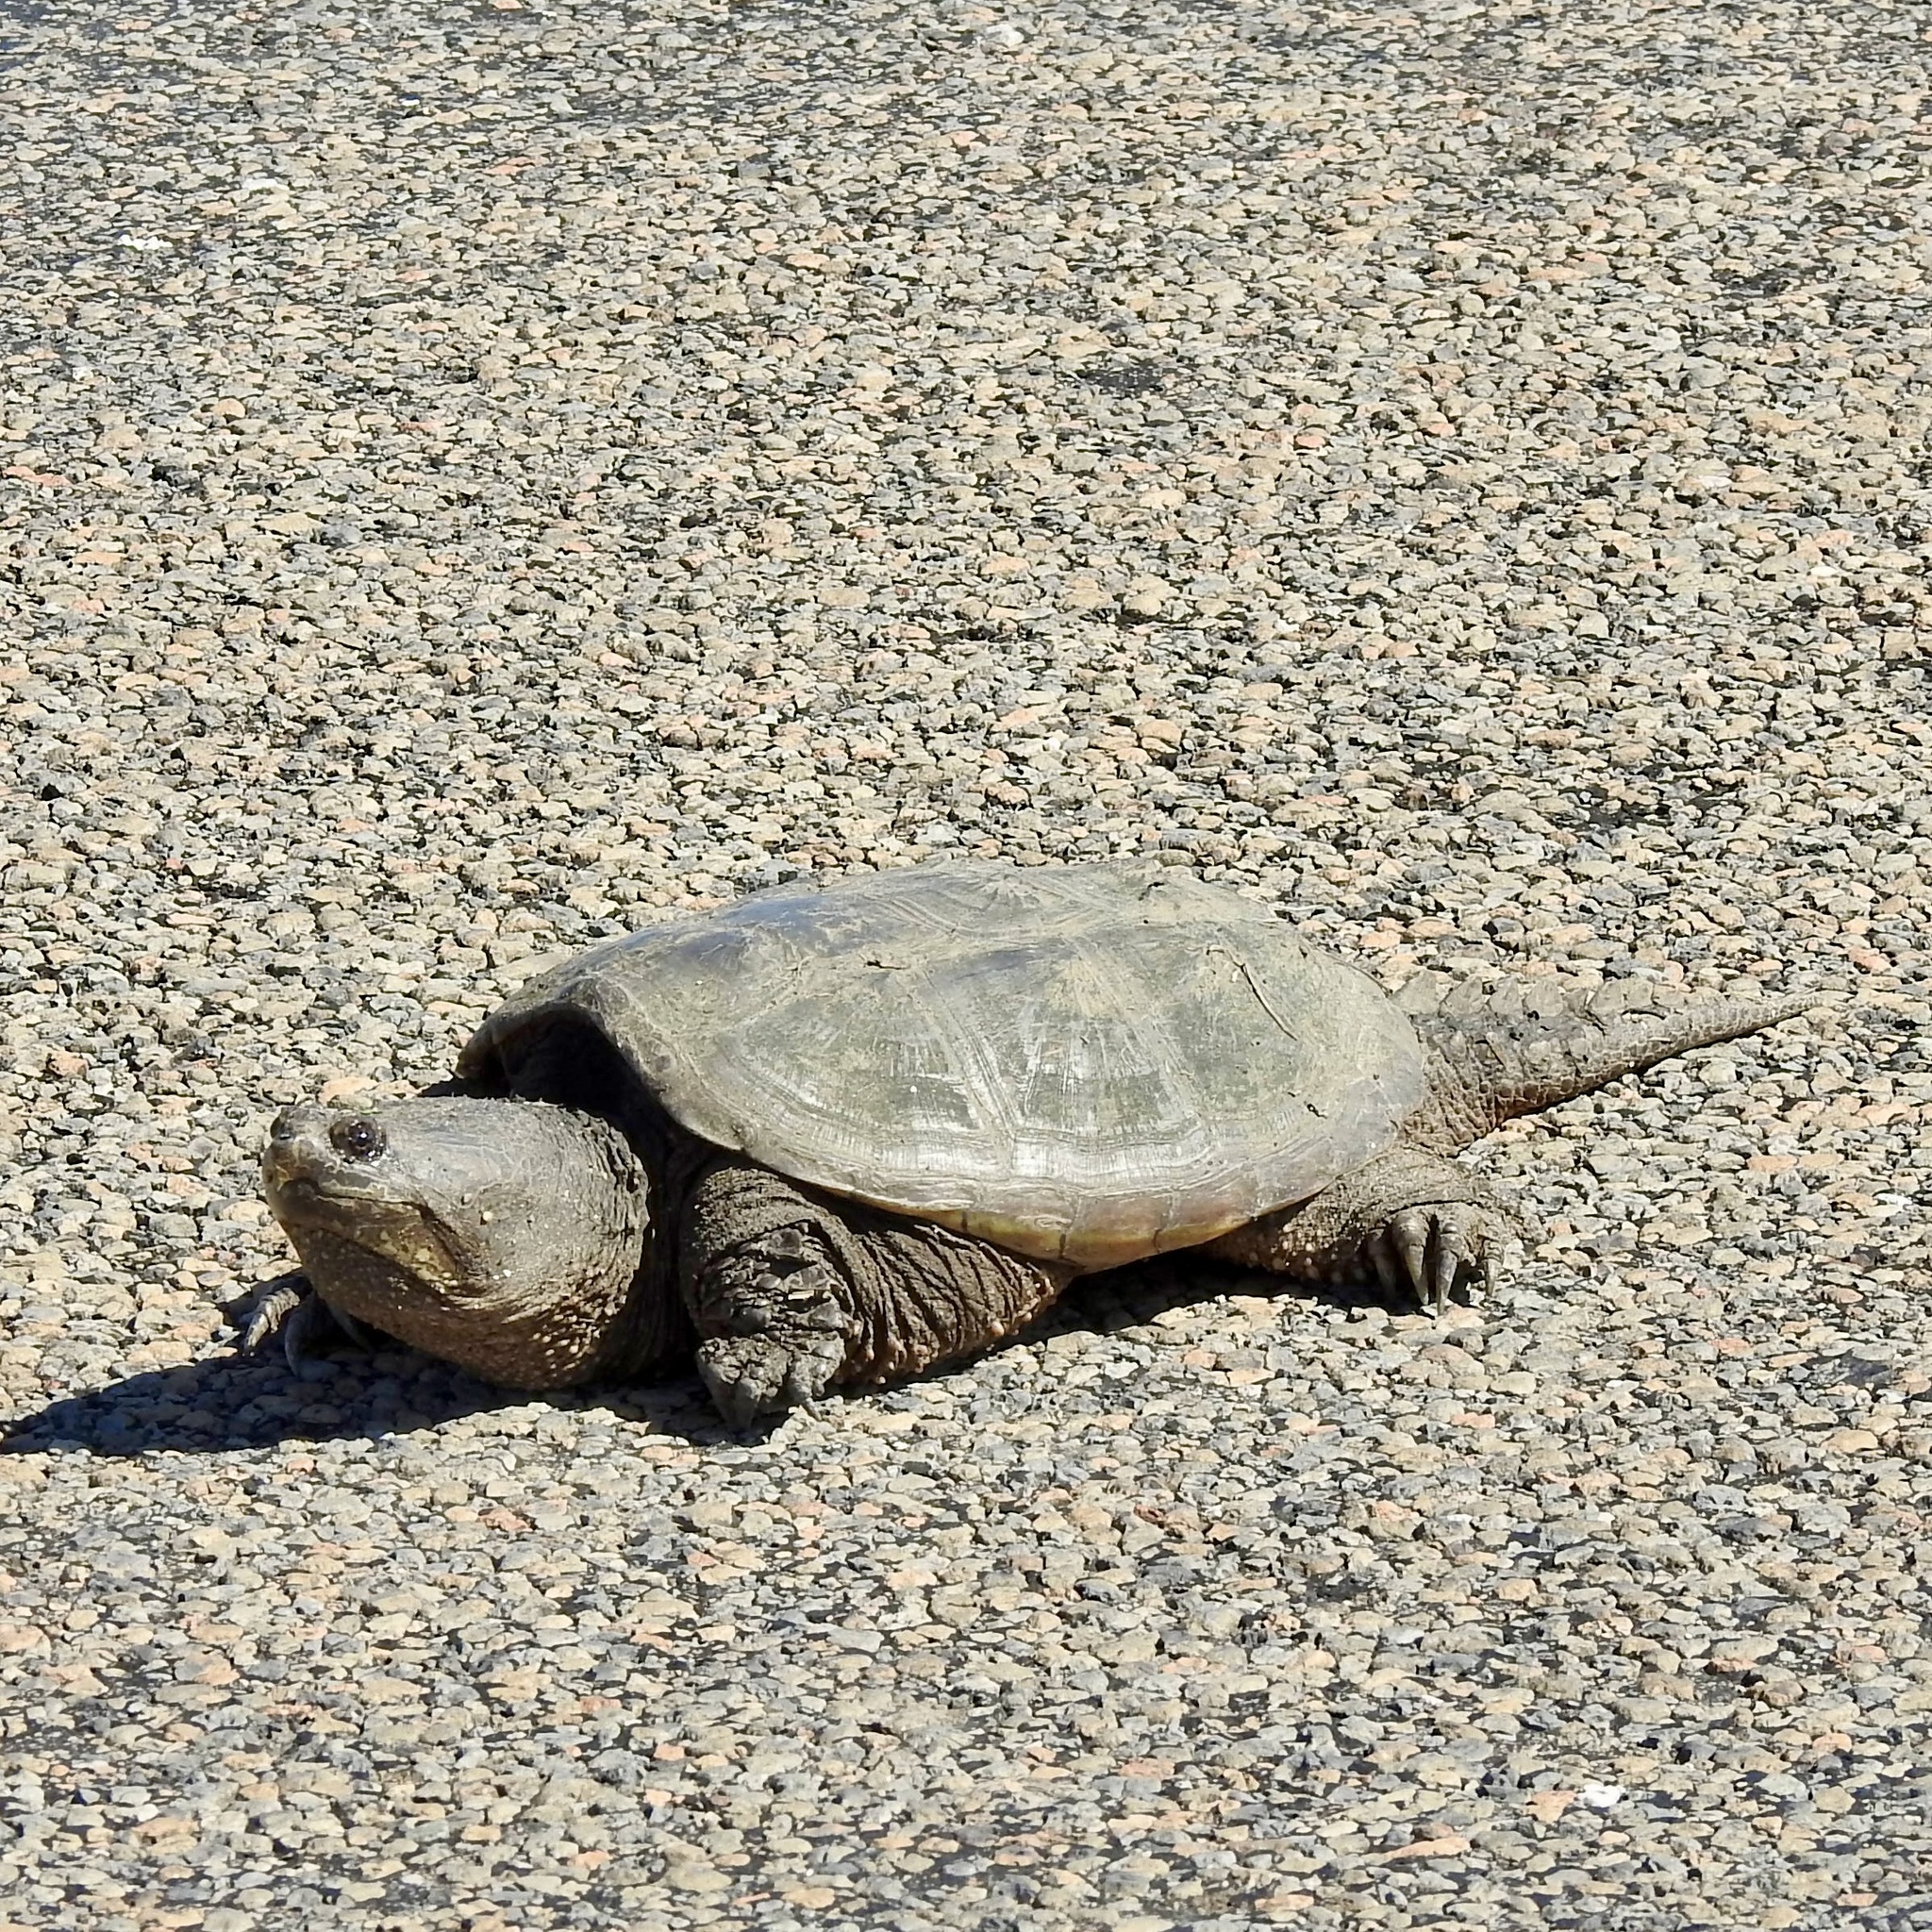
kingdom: Animalia
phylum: Chordata
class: Testudines
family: Chelydridae
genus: Chelydra
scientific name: Chelydra serpentina
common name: Common snapping turtle
